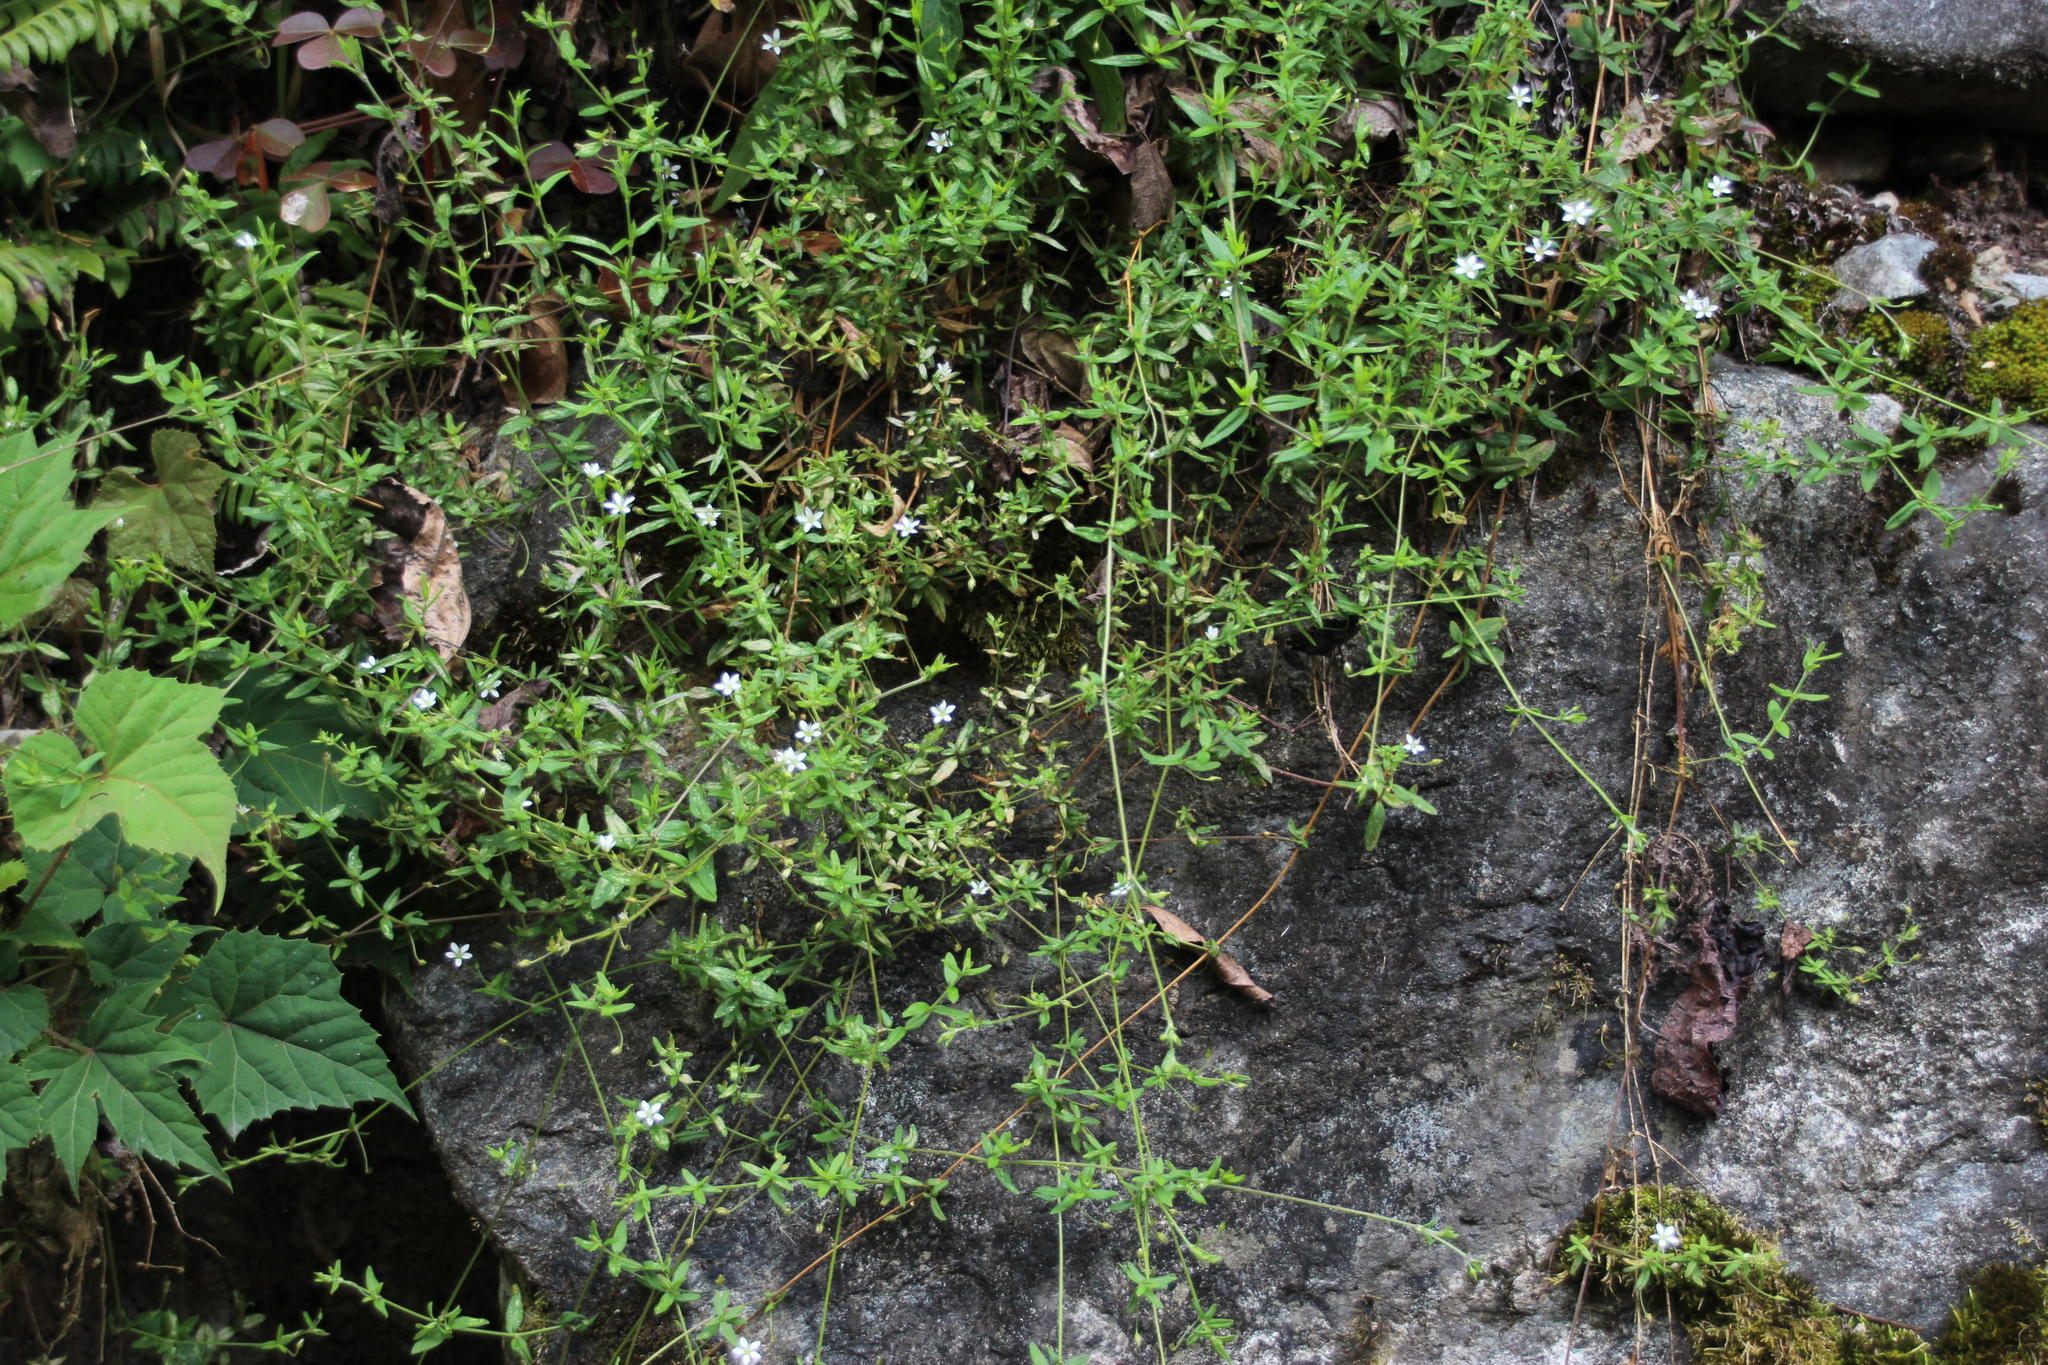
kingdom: Plantae
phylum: Tracheophyta
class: Magnoliopsida
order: Caryophyllales
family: Caryophyllaceae
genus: Arenaria
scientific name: Arenaria lanuginosa
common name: Spread sandwort
